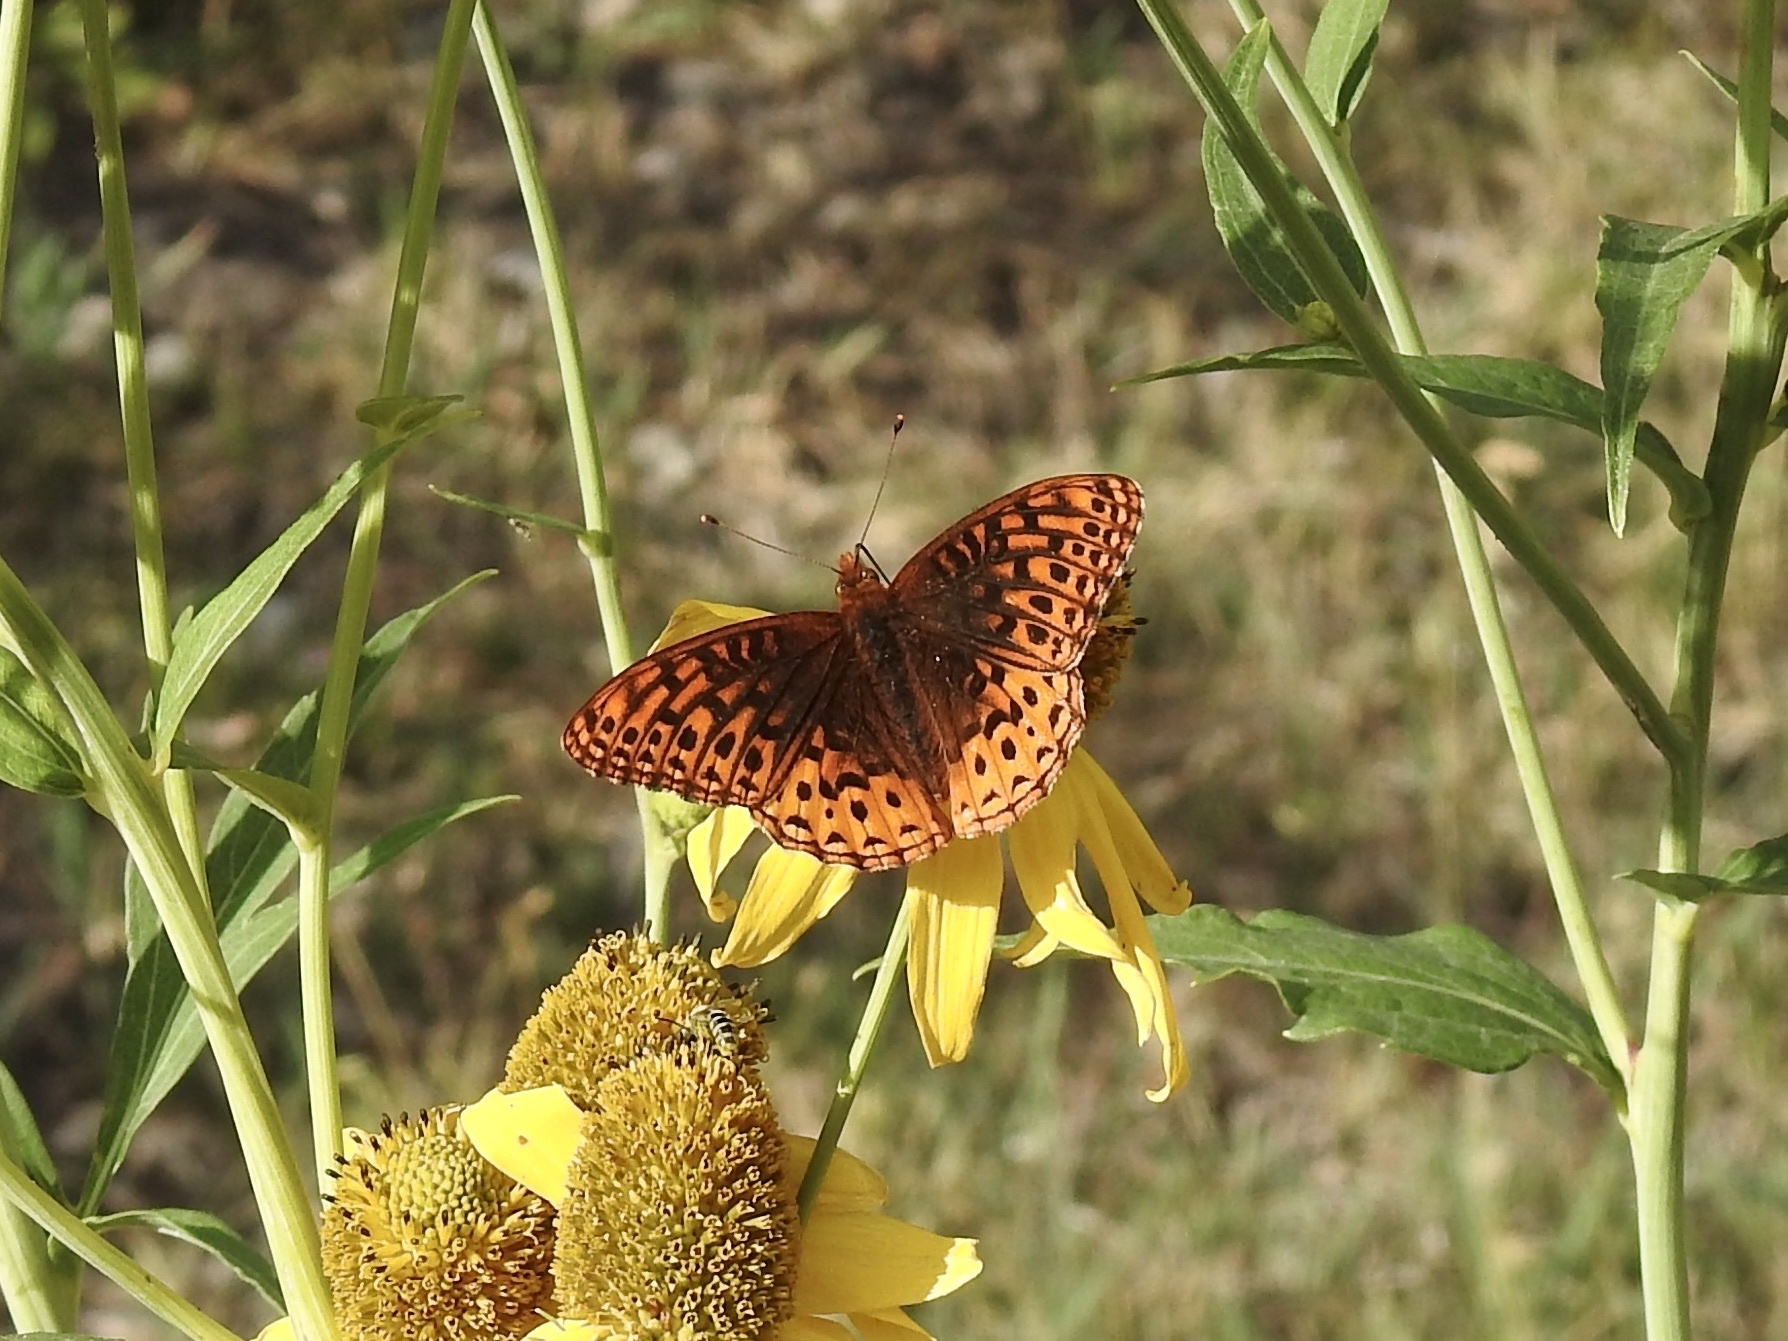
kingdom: Animalia
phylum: Arthropoda
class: Insecta
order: Lepidoptera
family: Nymphalidae
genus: Speyeria
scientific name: Speyeria atlantis
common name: Atlantis fritillary
